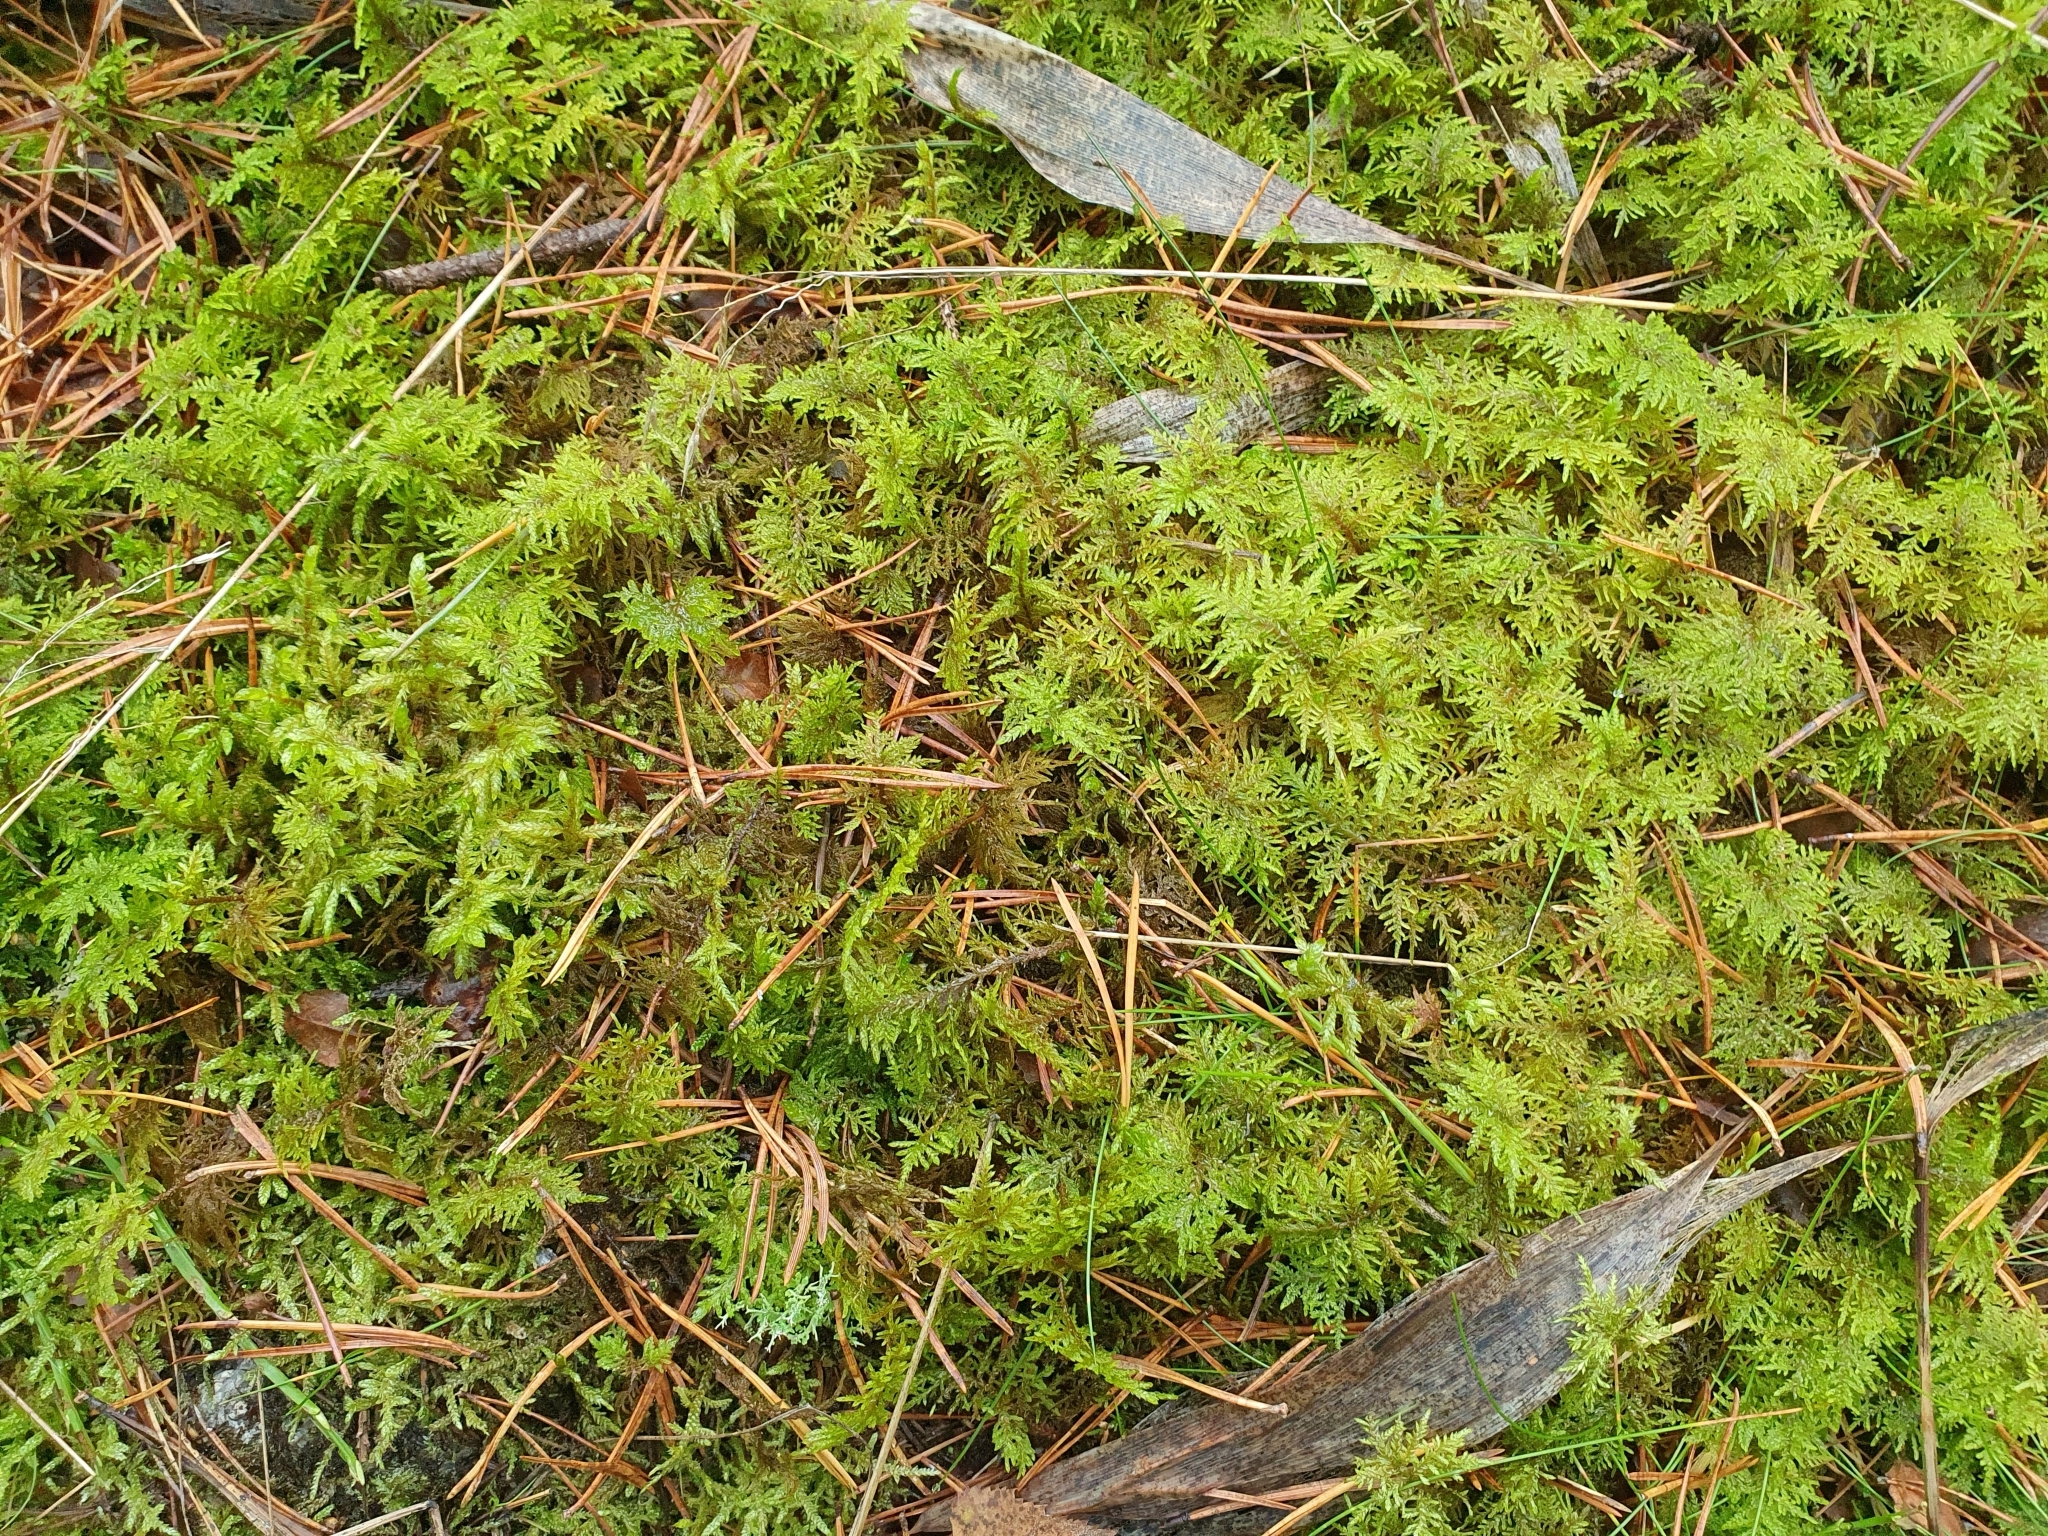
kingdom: Plantae
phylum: Bryophyta
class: Bryopsida
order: Hypnales
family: Hylocomiaceae
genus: Hylocomium
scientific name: Hylocomium splendens
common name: Stairstep moss
